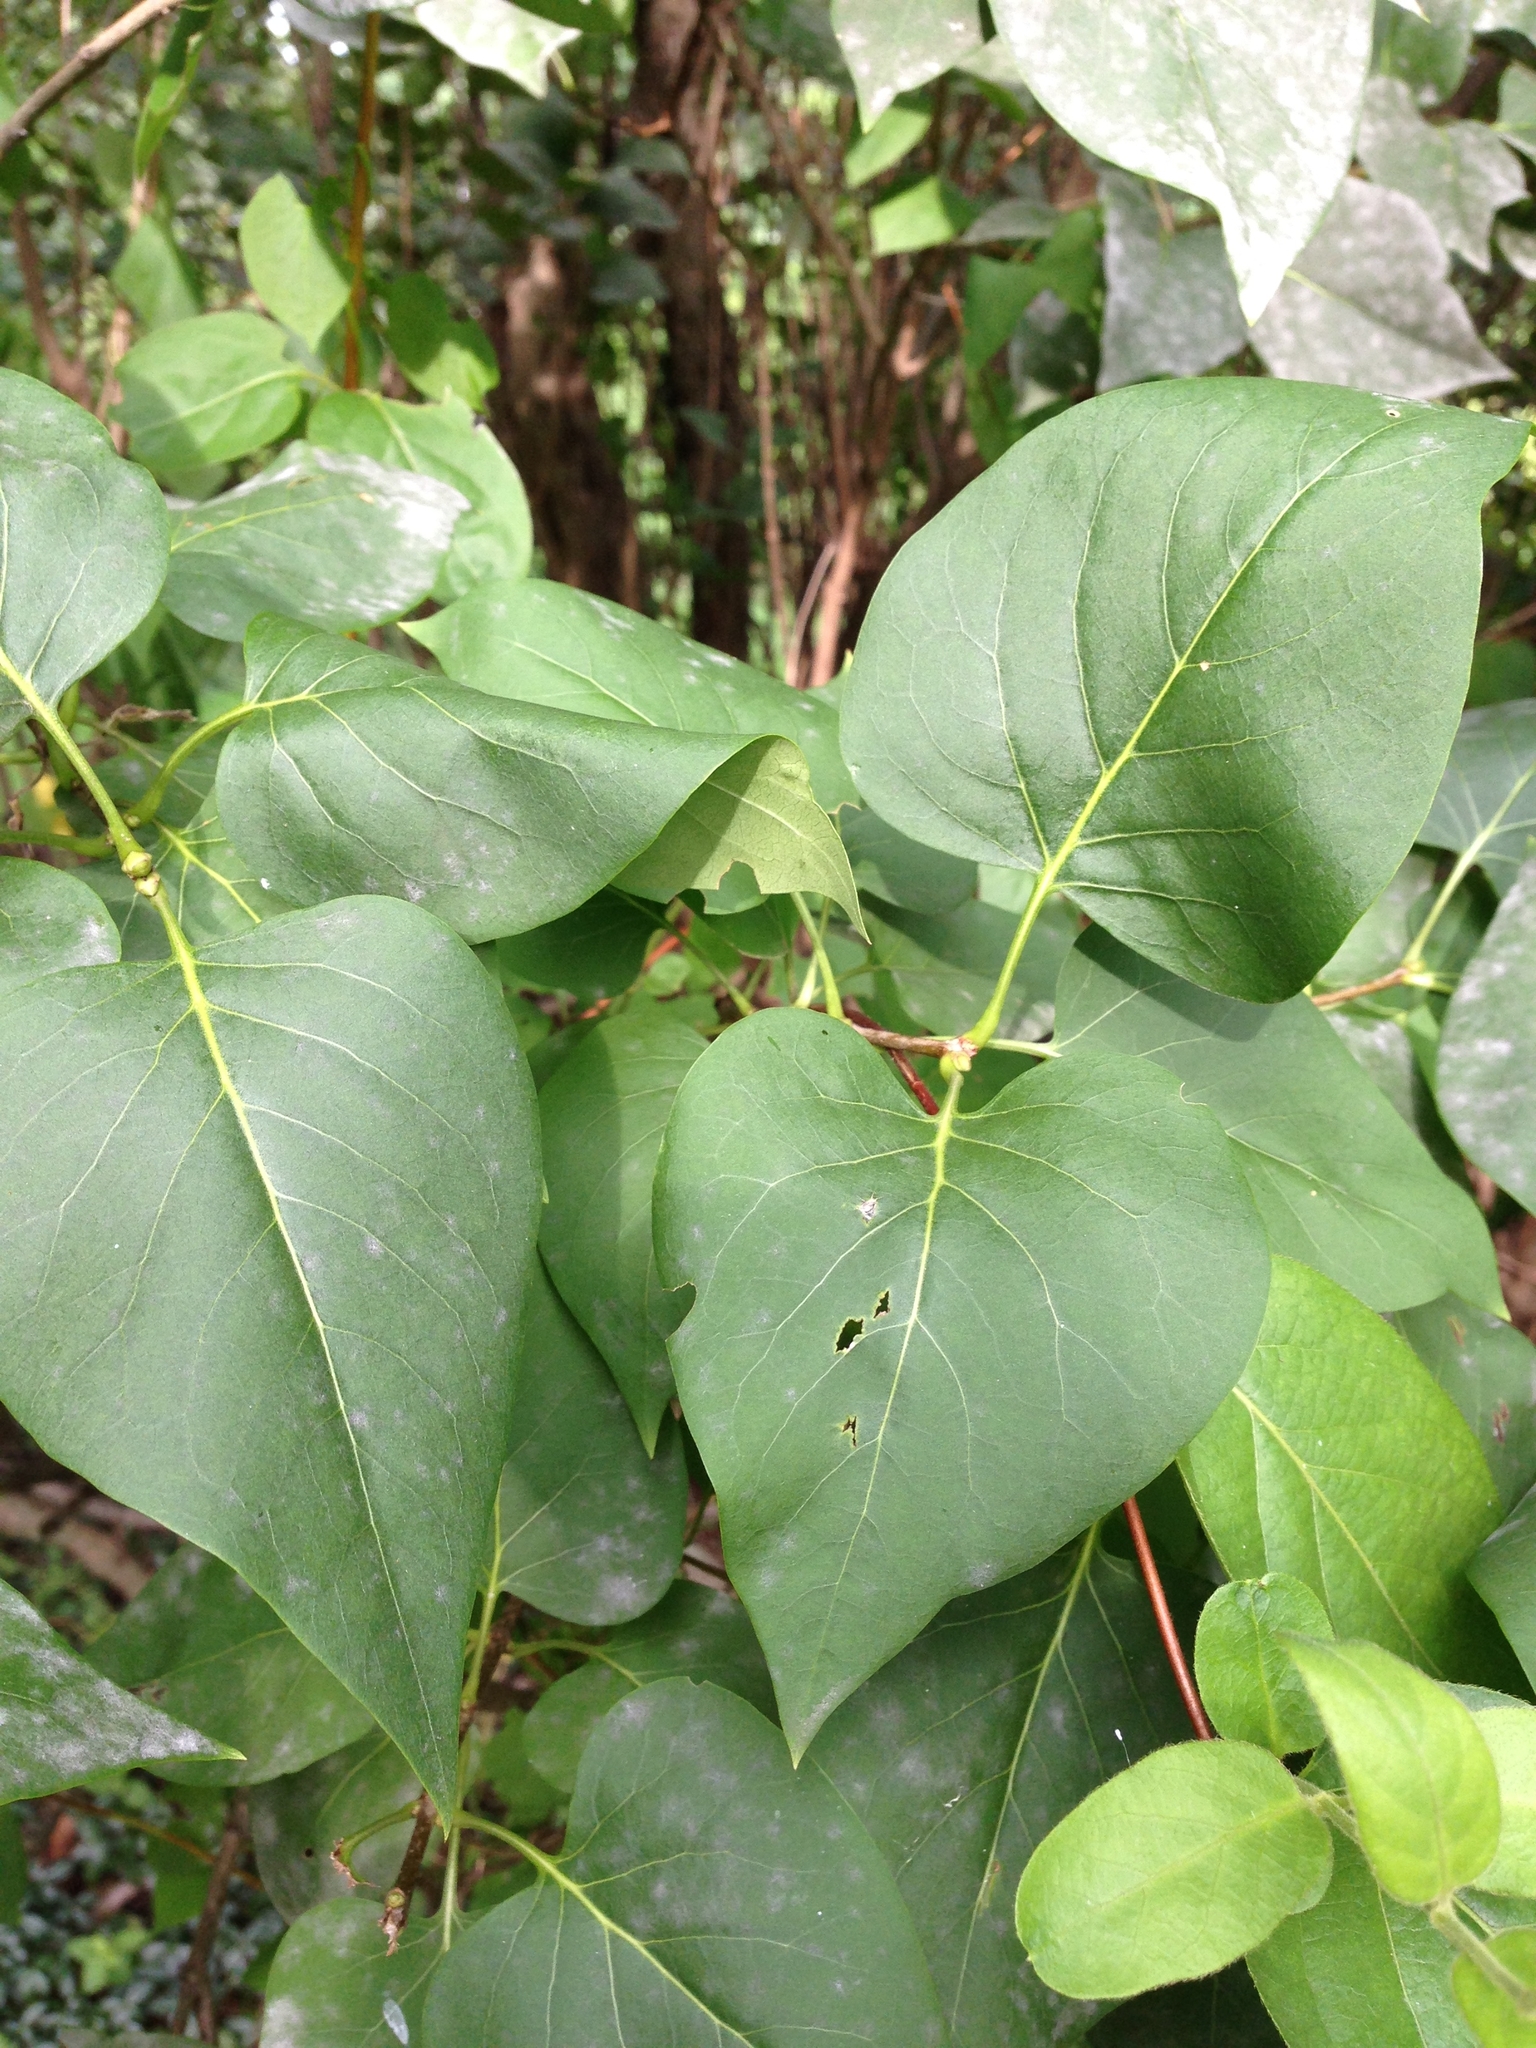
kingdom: Plantae
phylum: Tracheophyta
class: Magnoliopsida
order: Lamiales
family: Oleaceae
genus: Syringa
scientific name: Syringa vulgaris
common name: Common lilac
